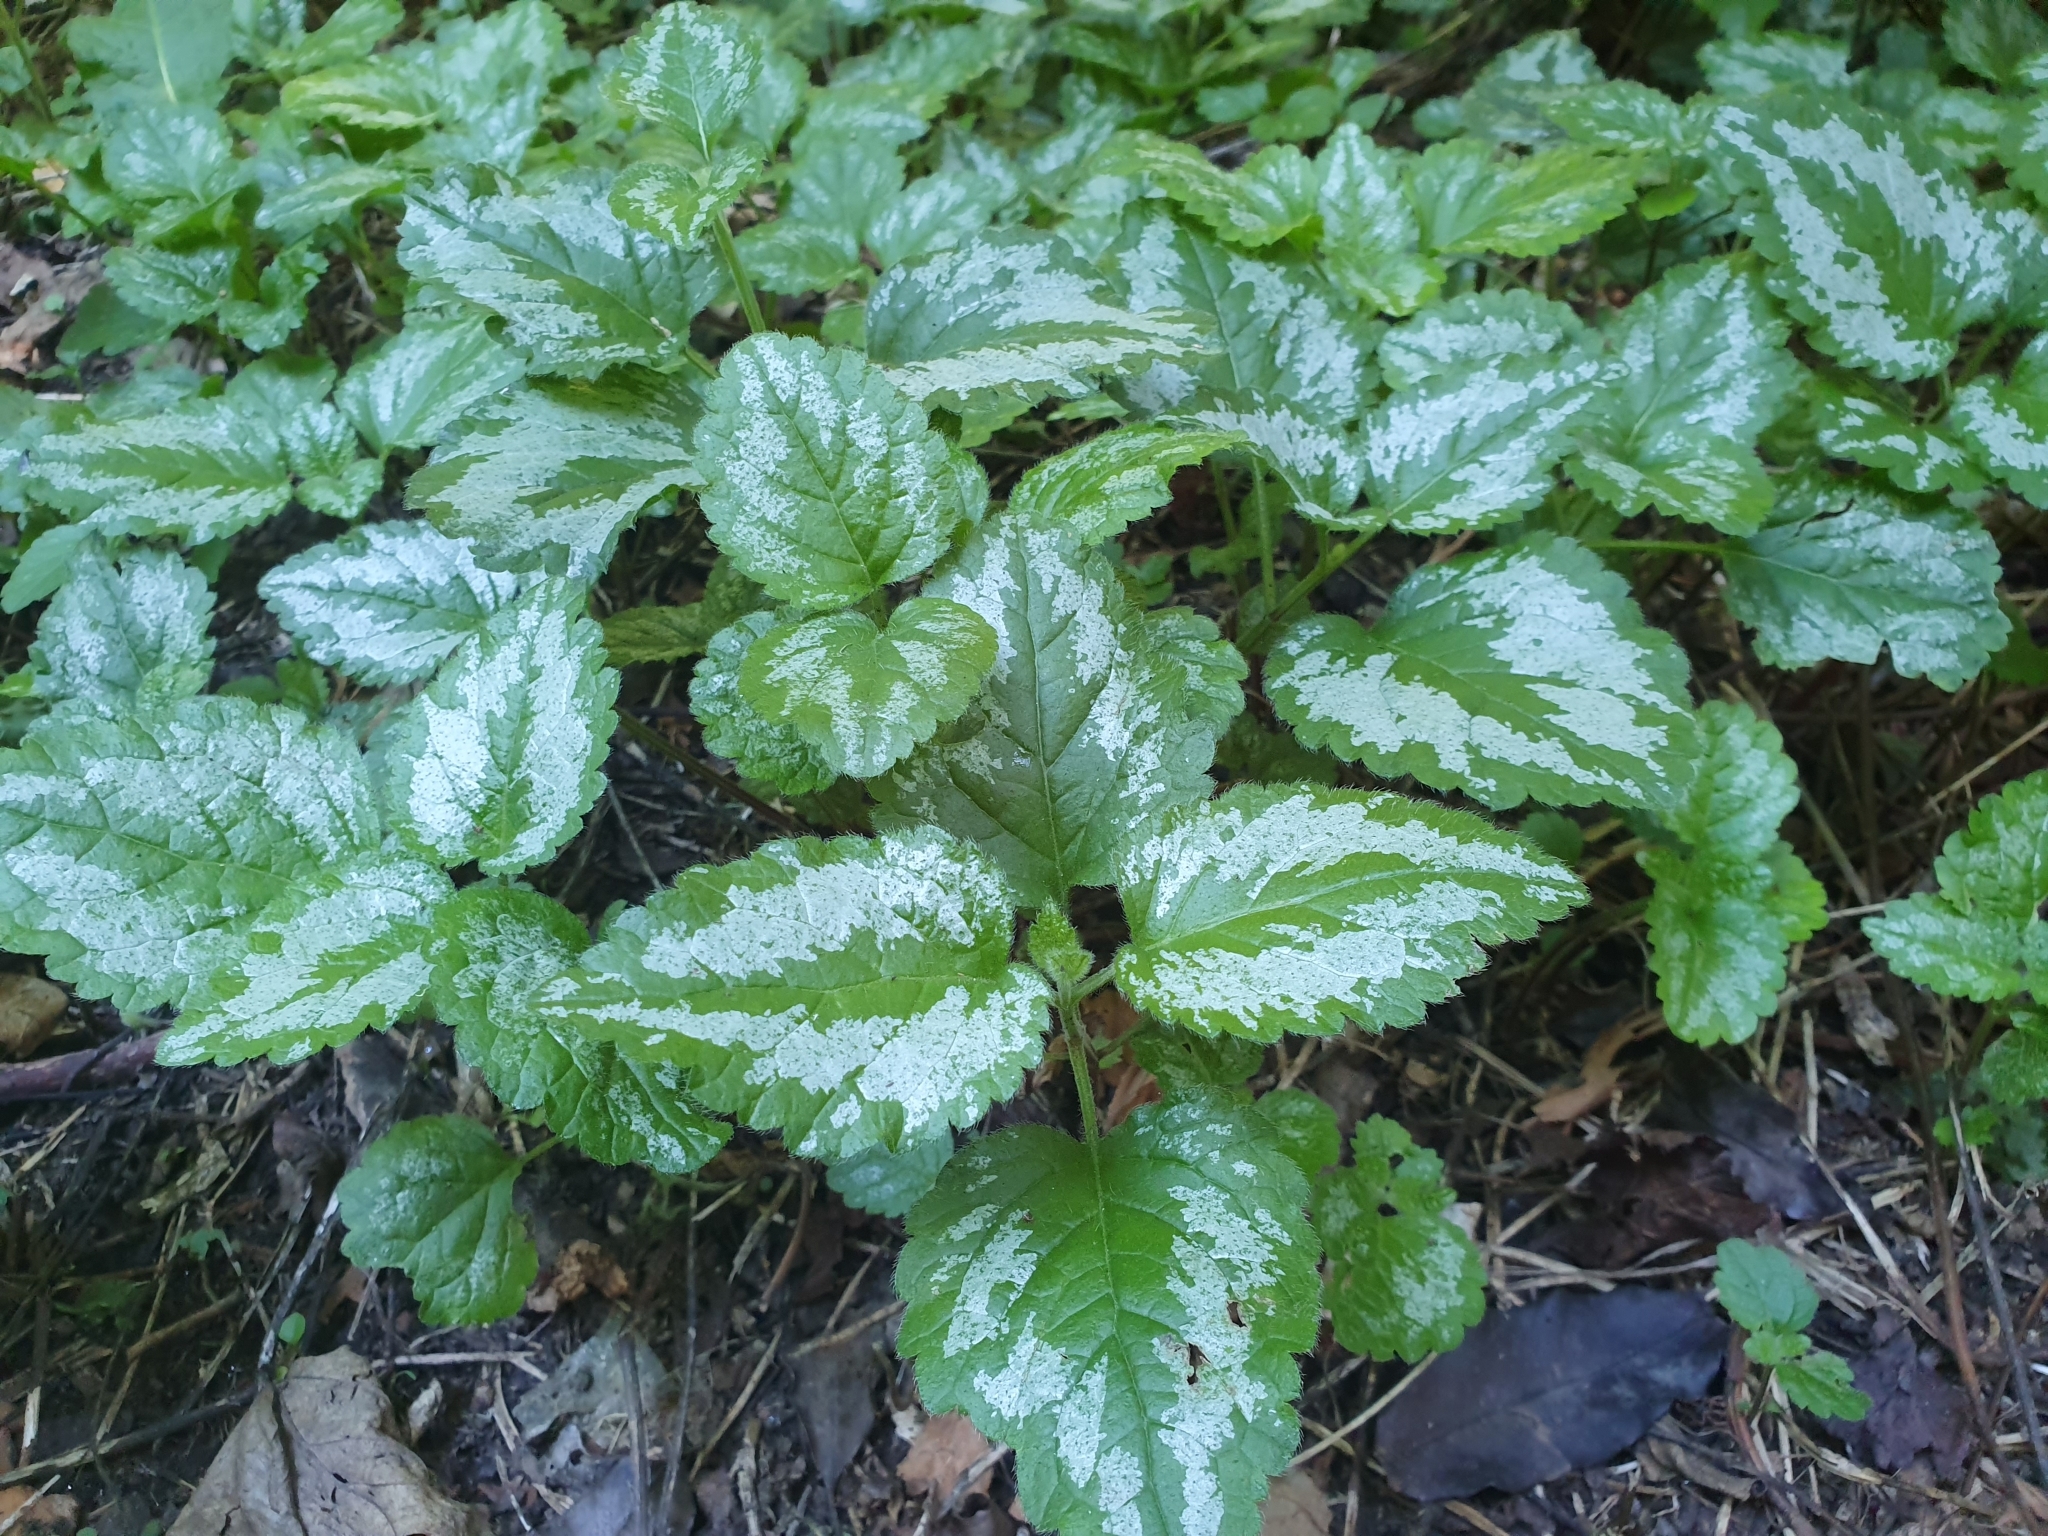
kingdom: Plantae
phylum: Tracheophyta
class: Magnoliopsida
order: Lamiales
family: Lamiaceae
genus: Lamium
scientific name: Lamium galeobdolon
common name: Yellow archangel
